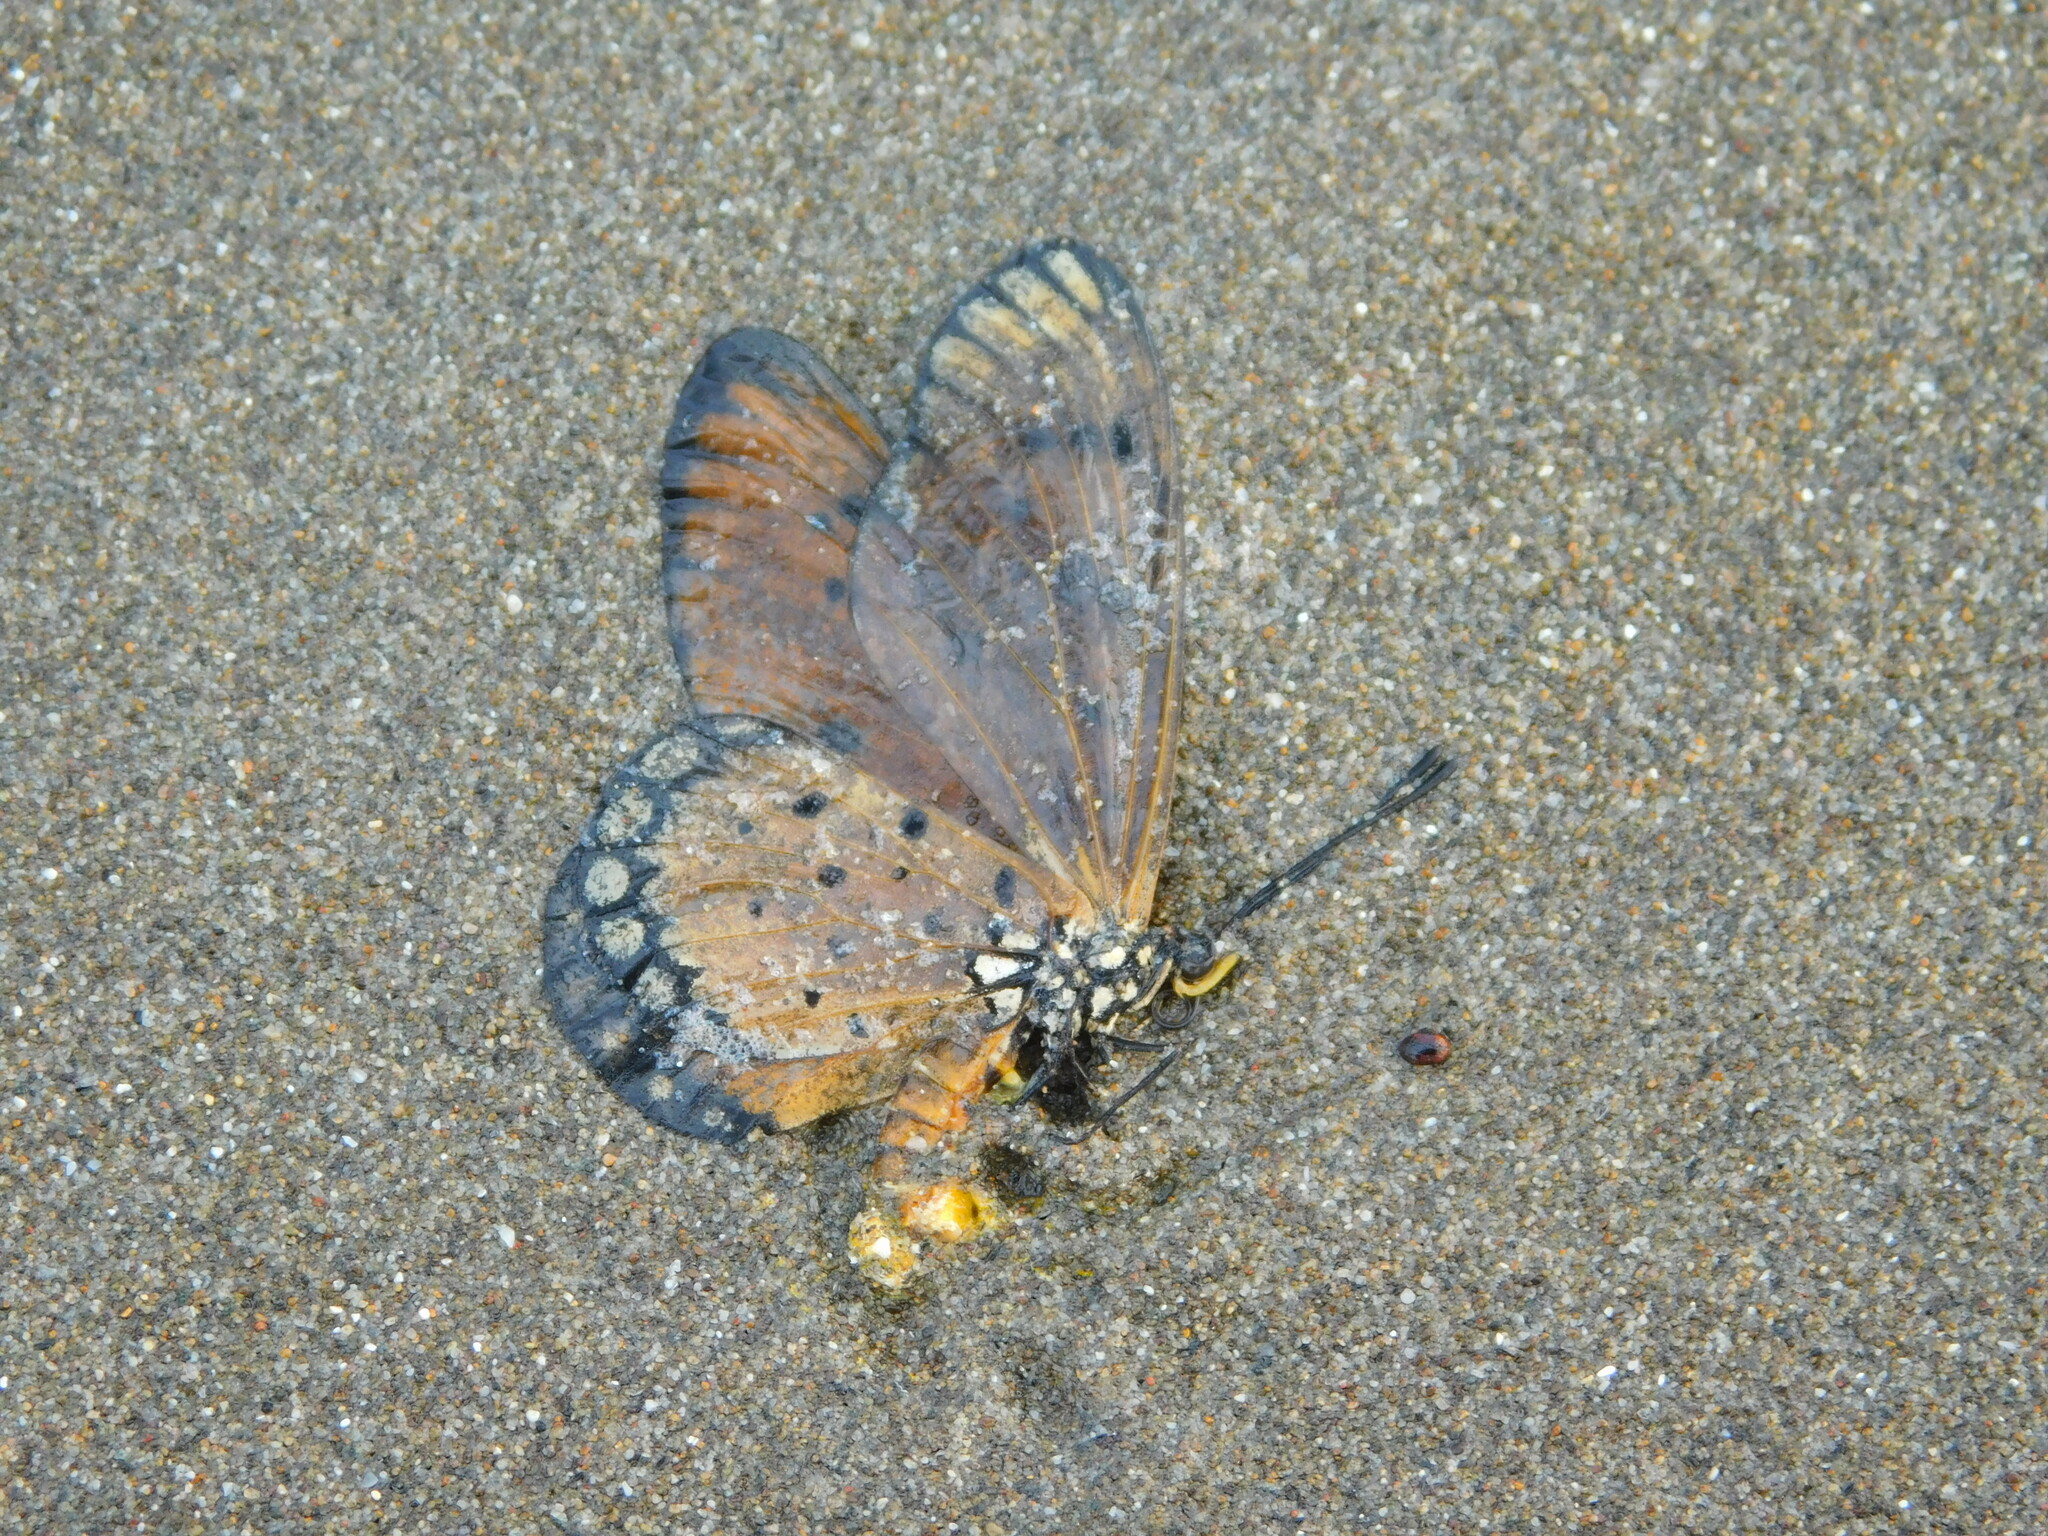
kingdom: Animalia
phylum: Arthropoda
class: Insecta
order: Lepidoptera
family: Nymphalidae
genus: Acraea
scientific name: Acraea terpsicore
